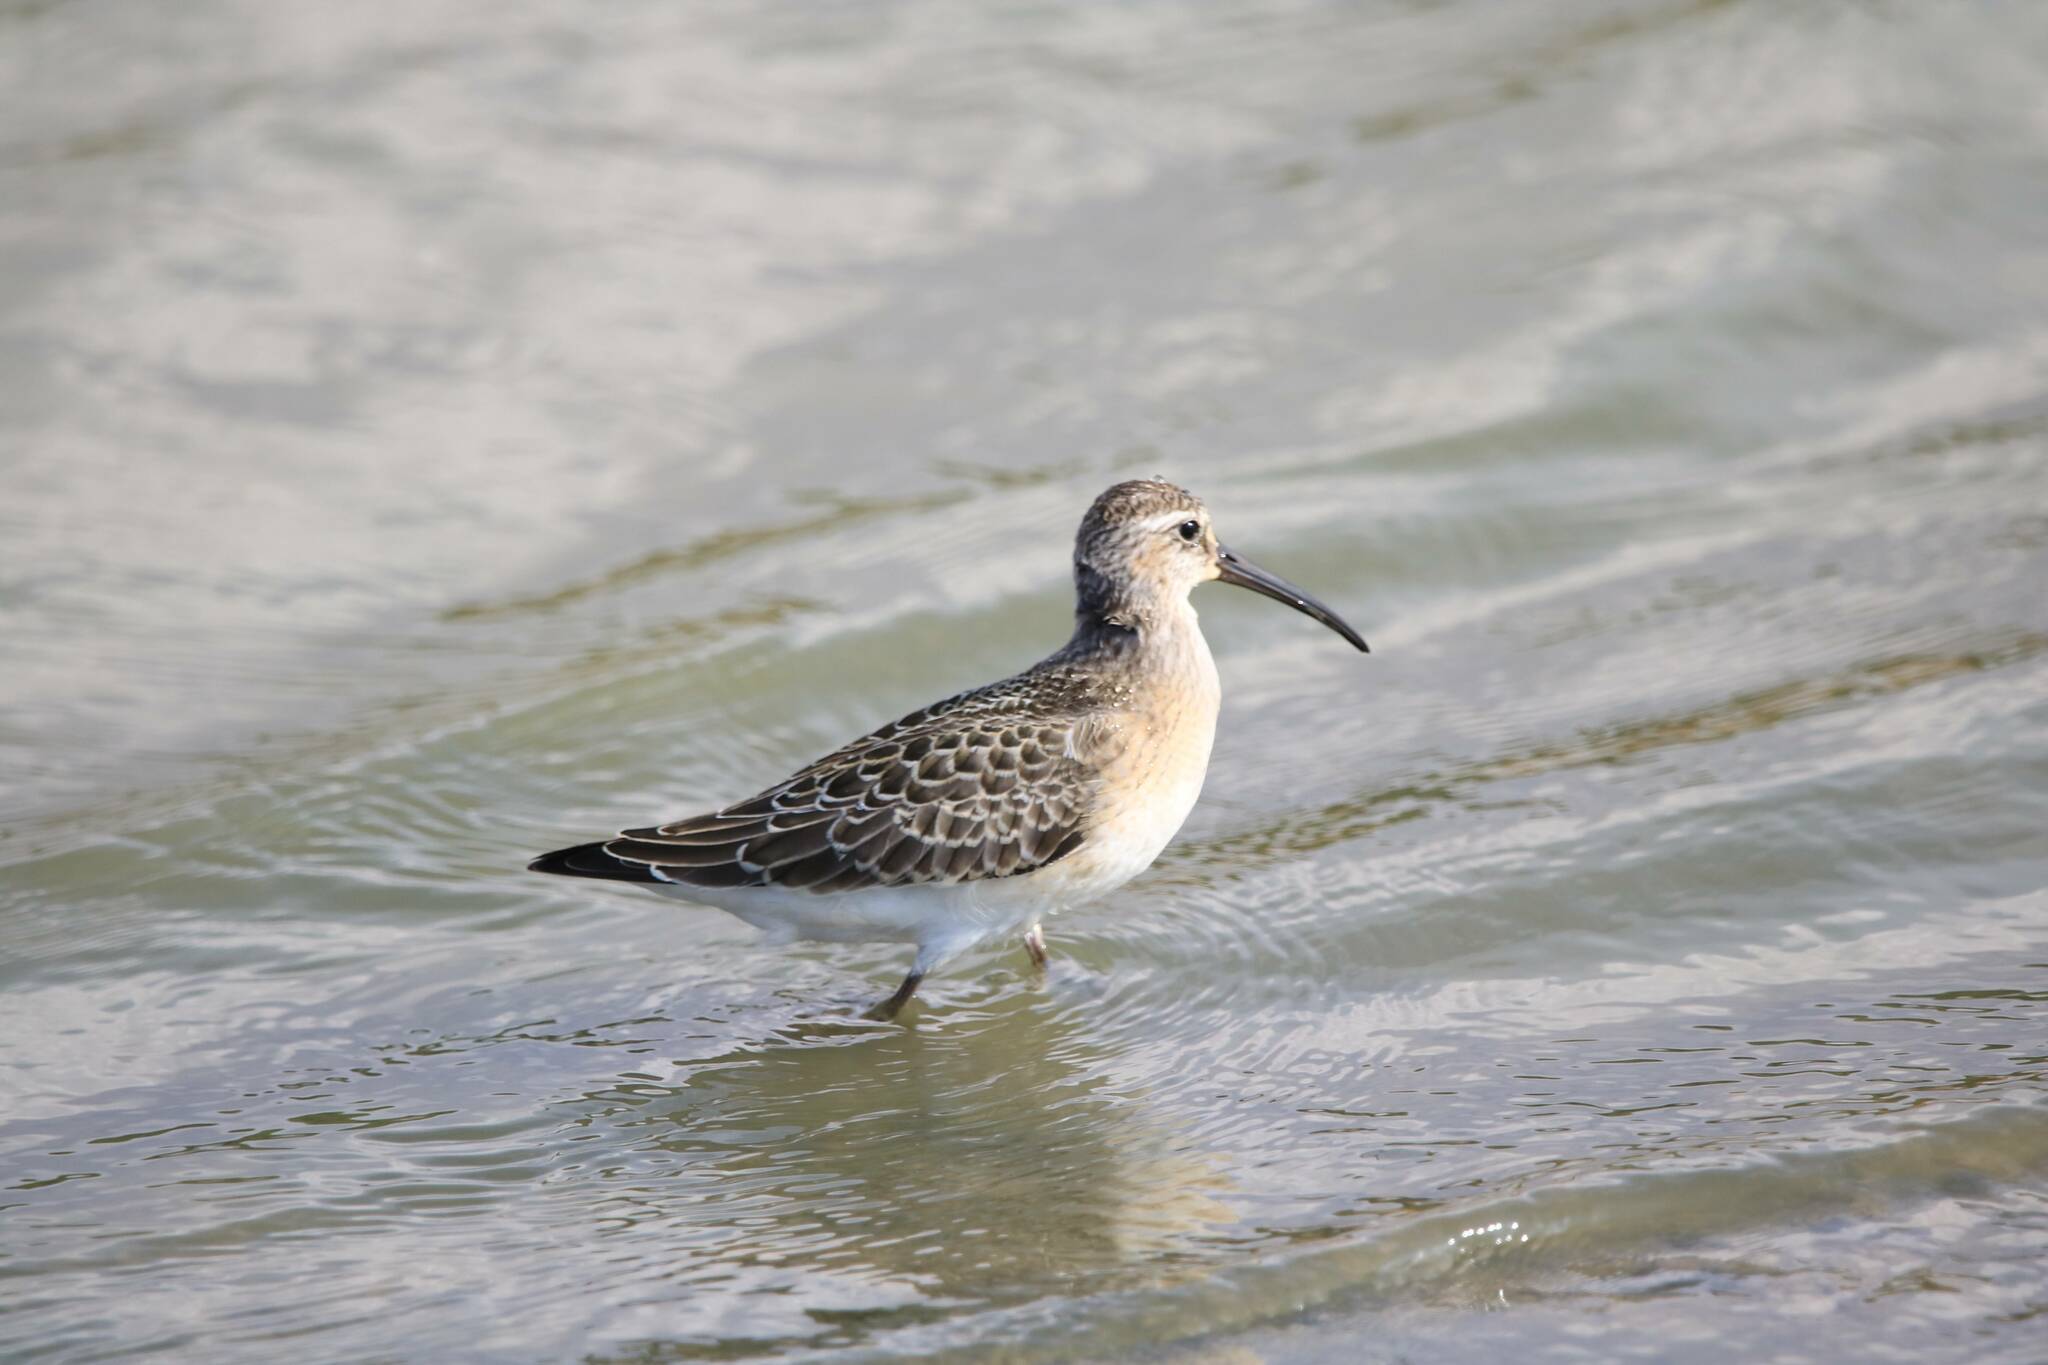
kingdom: Animalia
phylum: Chordata
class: Aves
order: Charadriiformes
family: Scolopacidae
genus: Calidris
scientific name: Calidris ferruginea
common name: Curlew sandpiper
